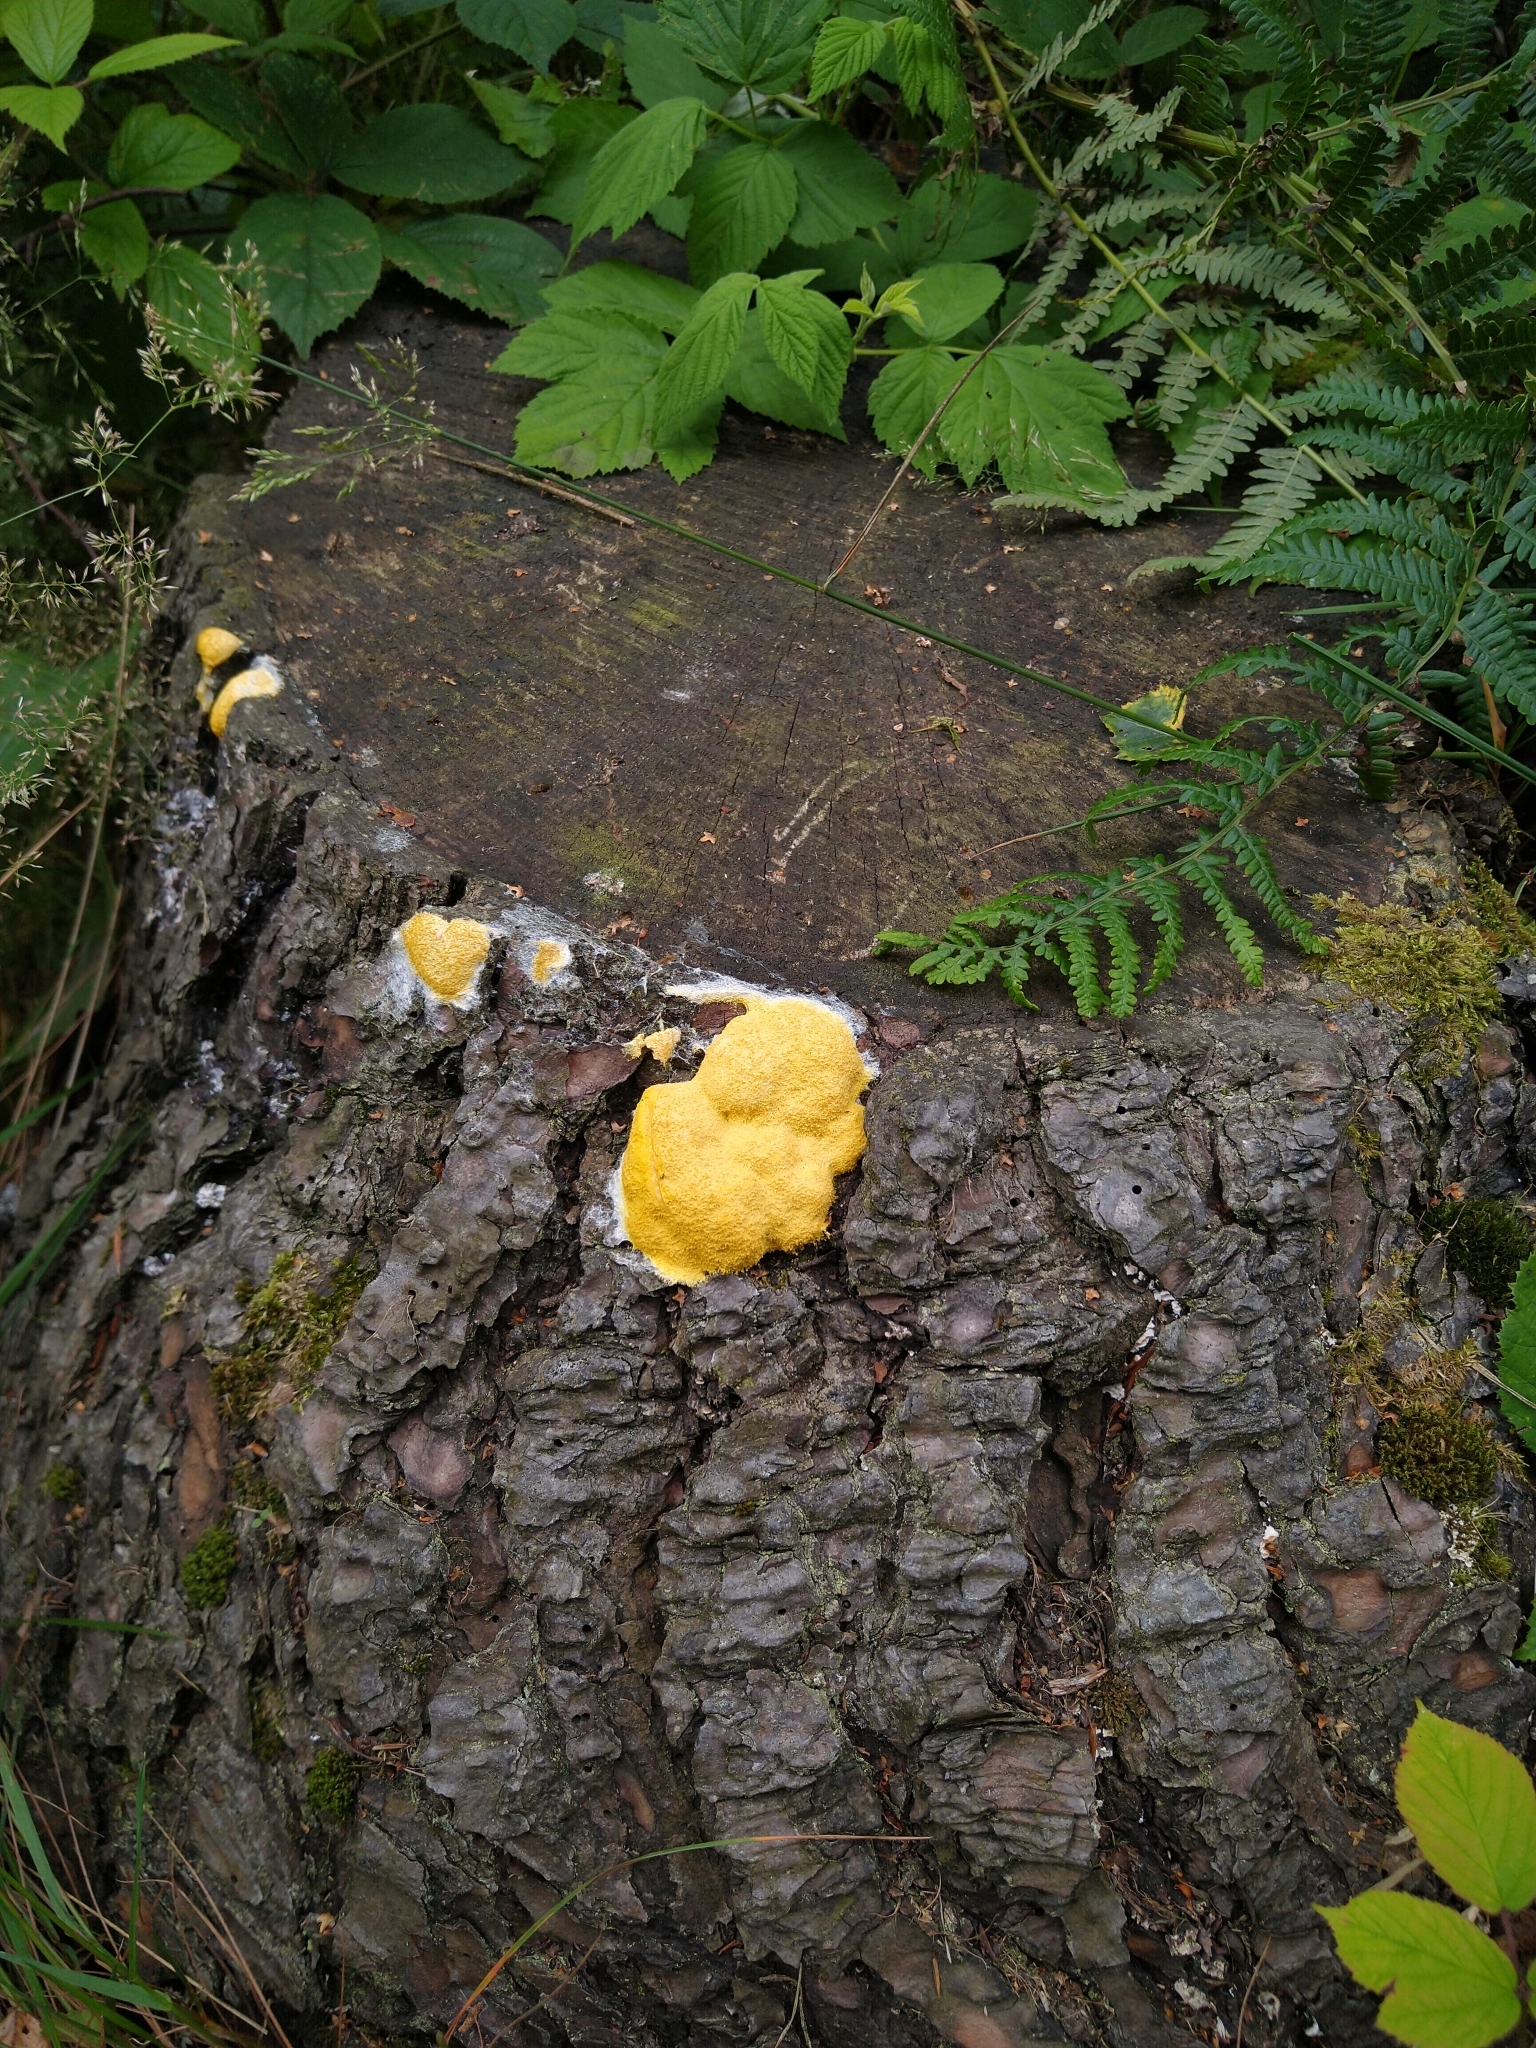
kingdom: Protozoa
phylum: Mycetozoa
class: Myxomycetes
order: Physarales
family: Physaraceae
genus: Fuligo
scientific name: Fuligo septica
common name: Dog vomit slime mold
